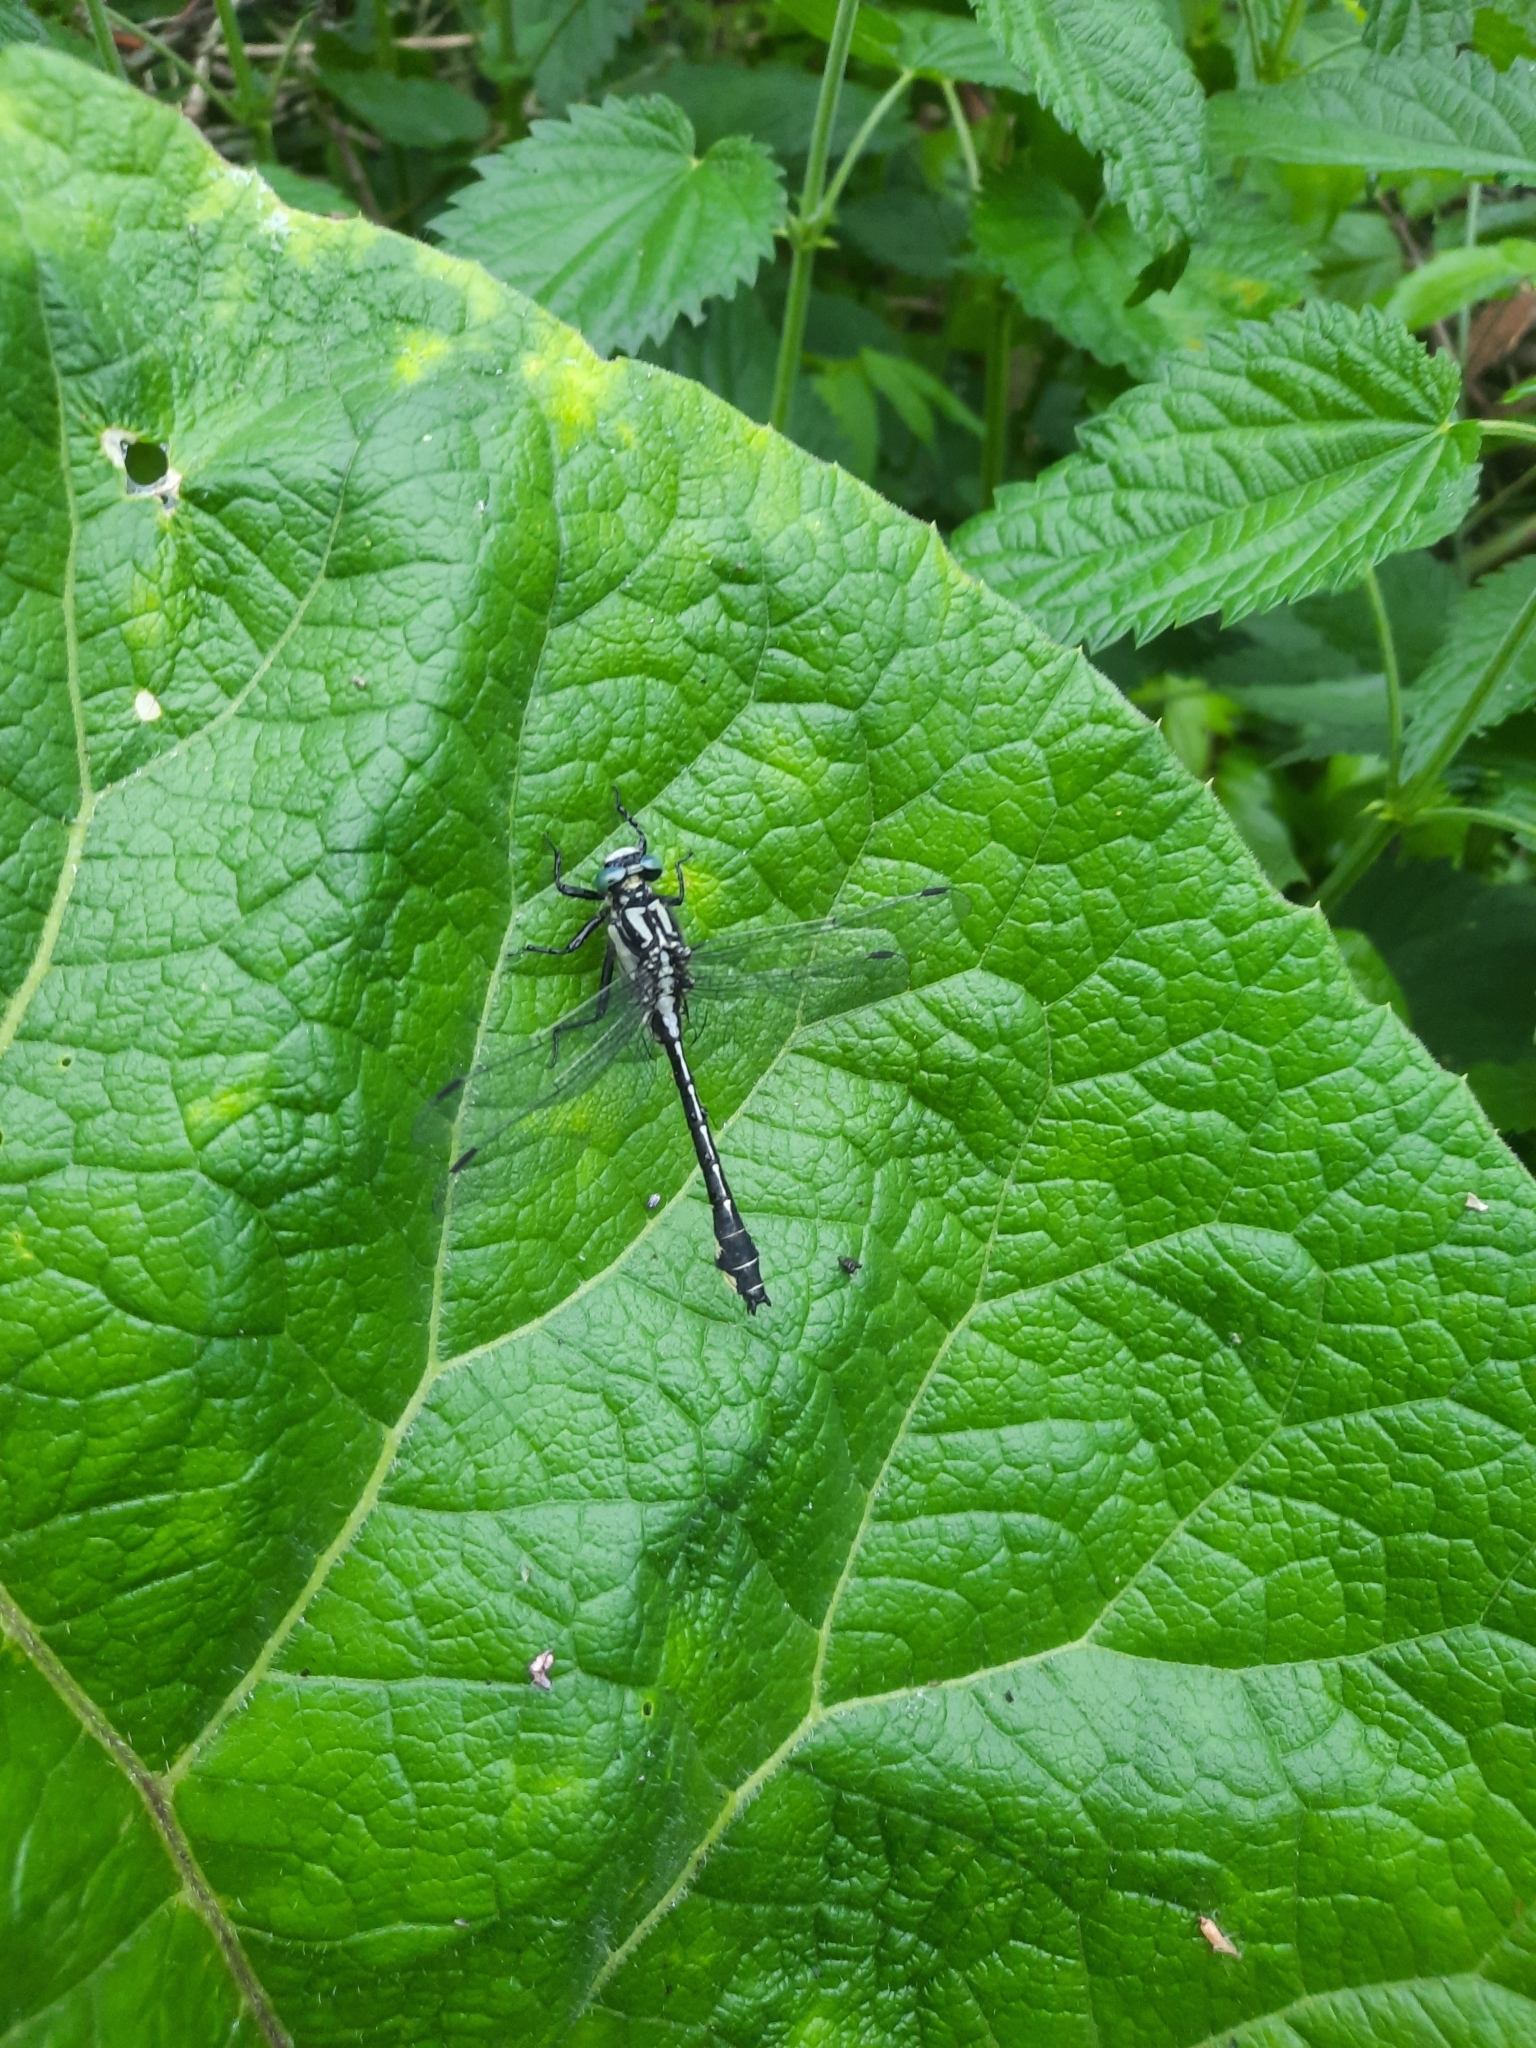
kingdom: Animalia
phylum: Arthropoda
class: Insecta
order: Odonata
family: Gomphidae
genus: Gomphus
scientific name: Gomphus vulgatissimus
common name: Club-tailed dragonfly
